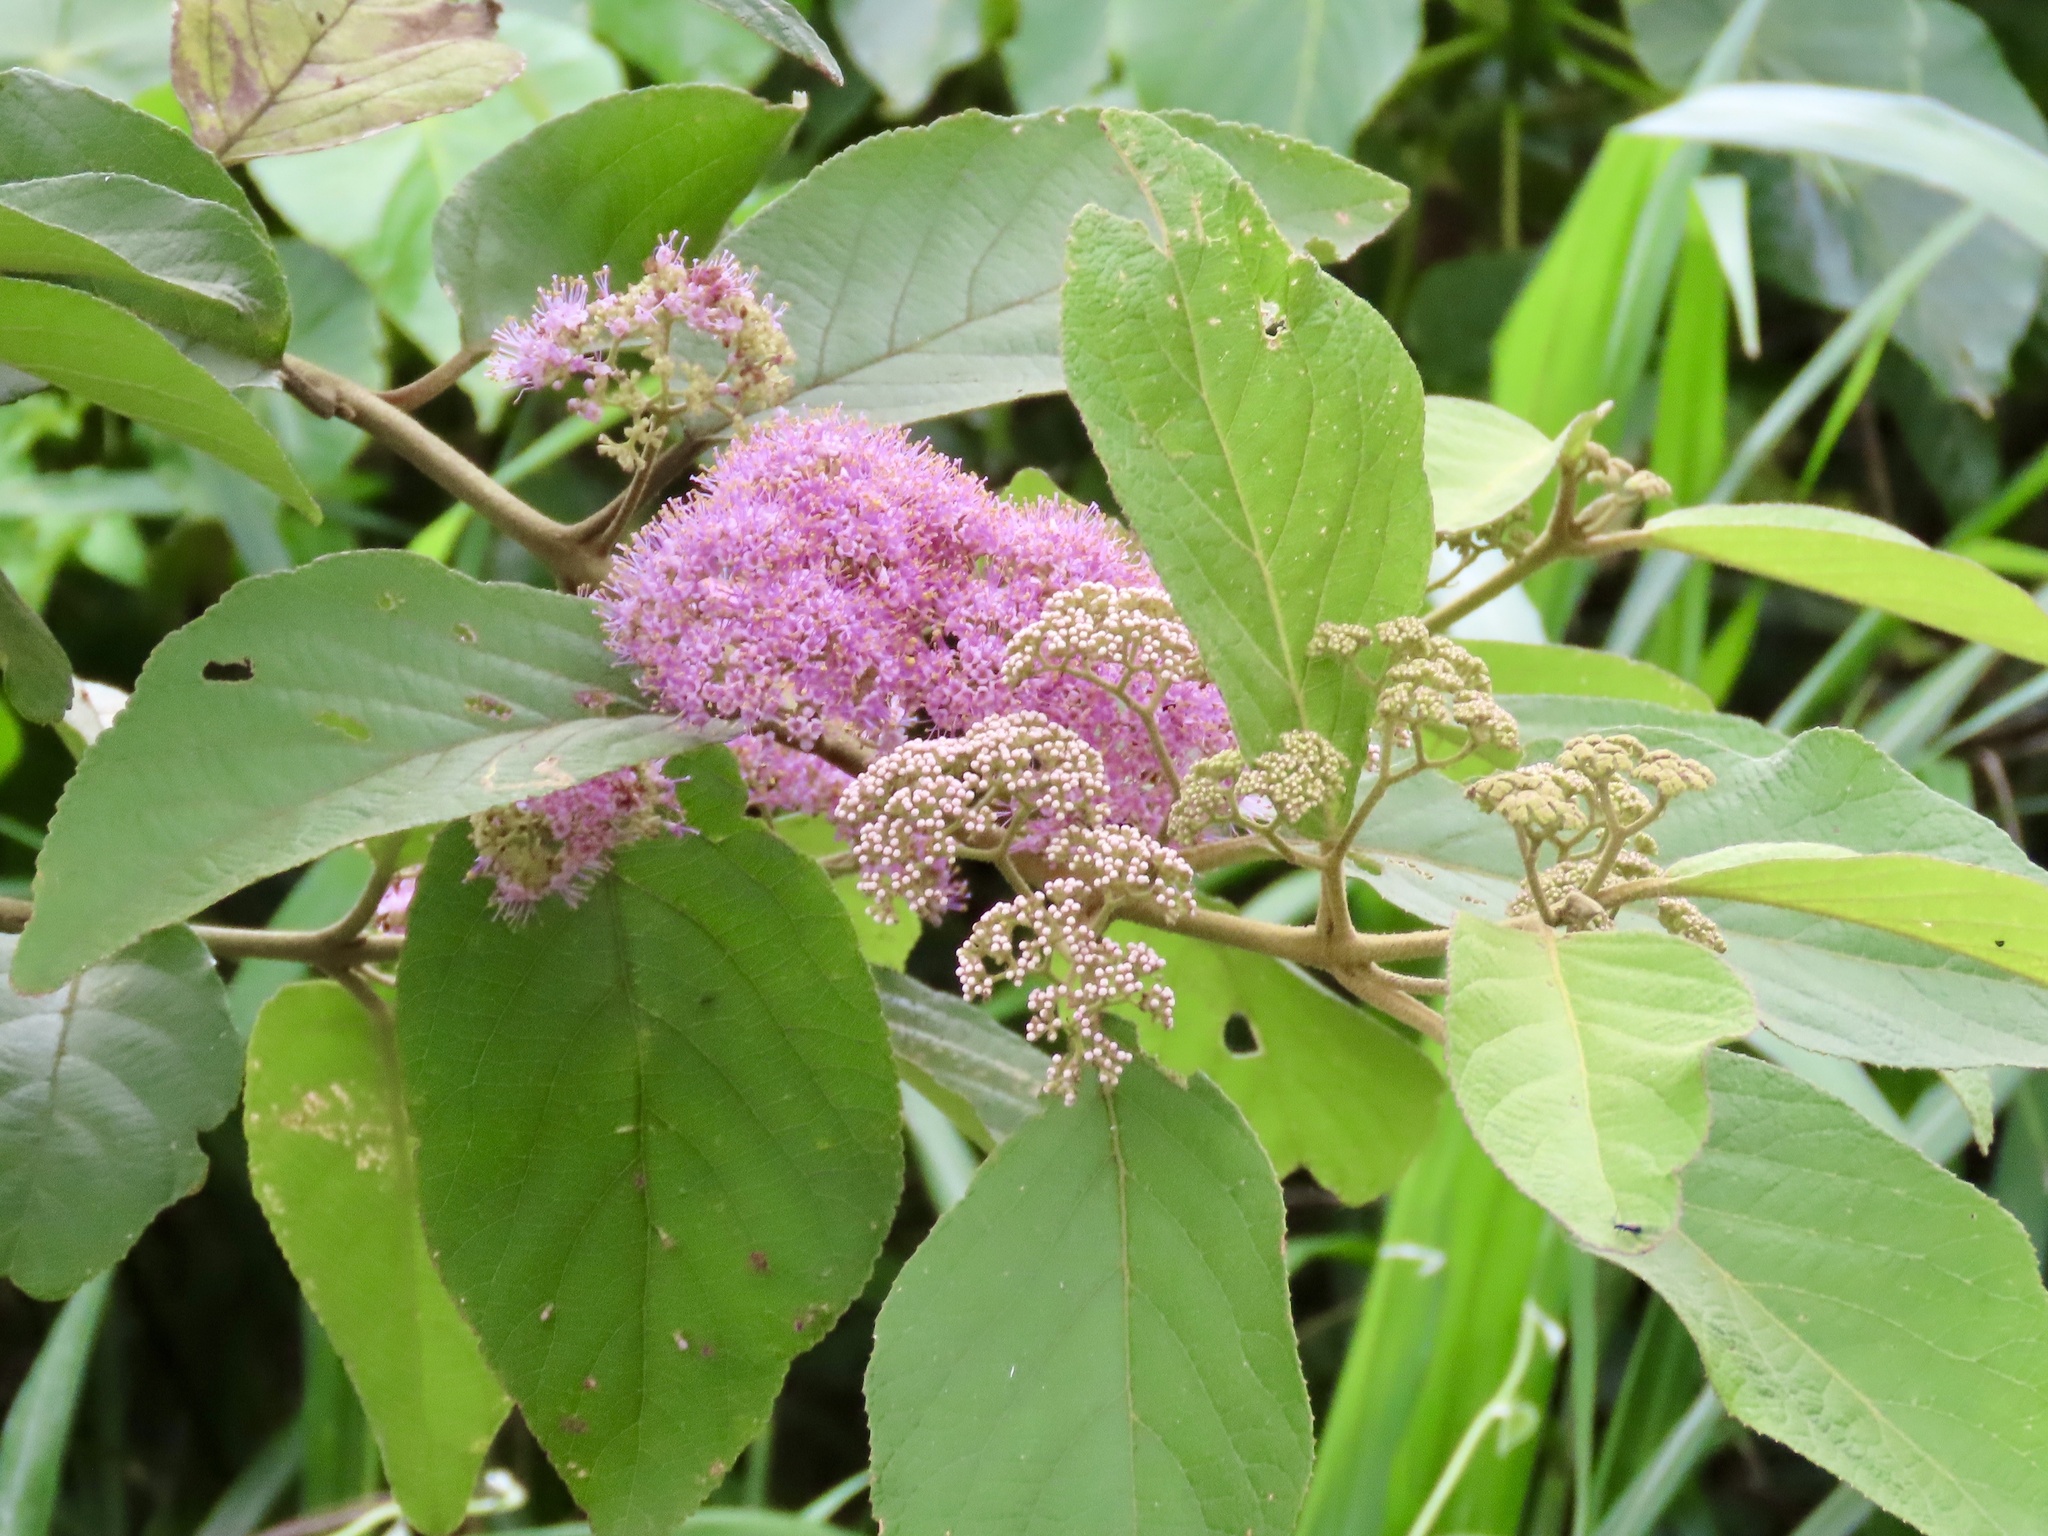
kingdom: Plantae
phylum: Tracheophyta
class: Magnoliopsida
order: Lamiales
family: Lamiaceae
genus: Callicarpa
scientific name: Callicarpa pedunculata
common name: Velvetleaf
